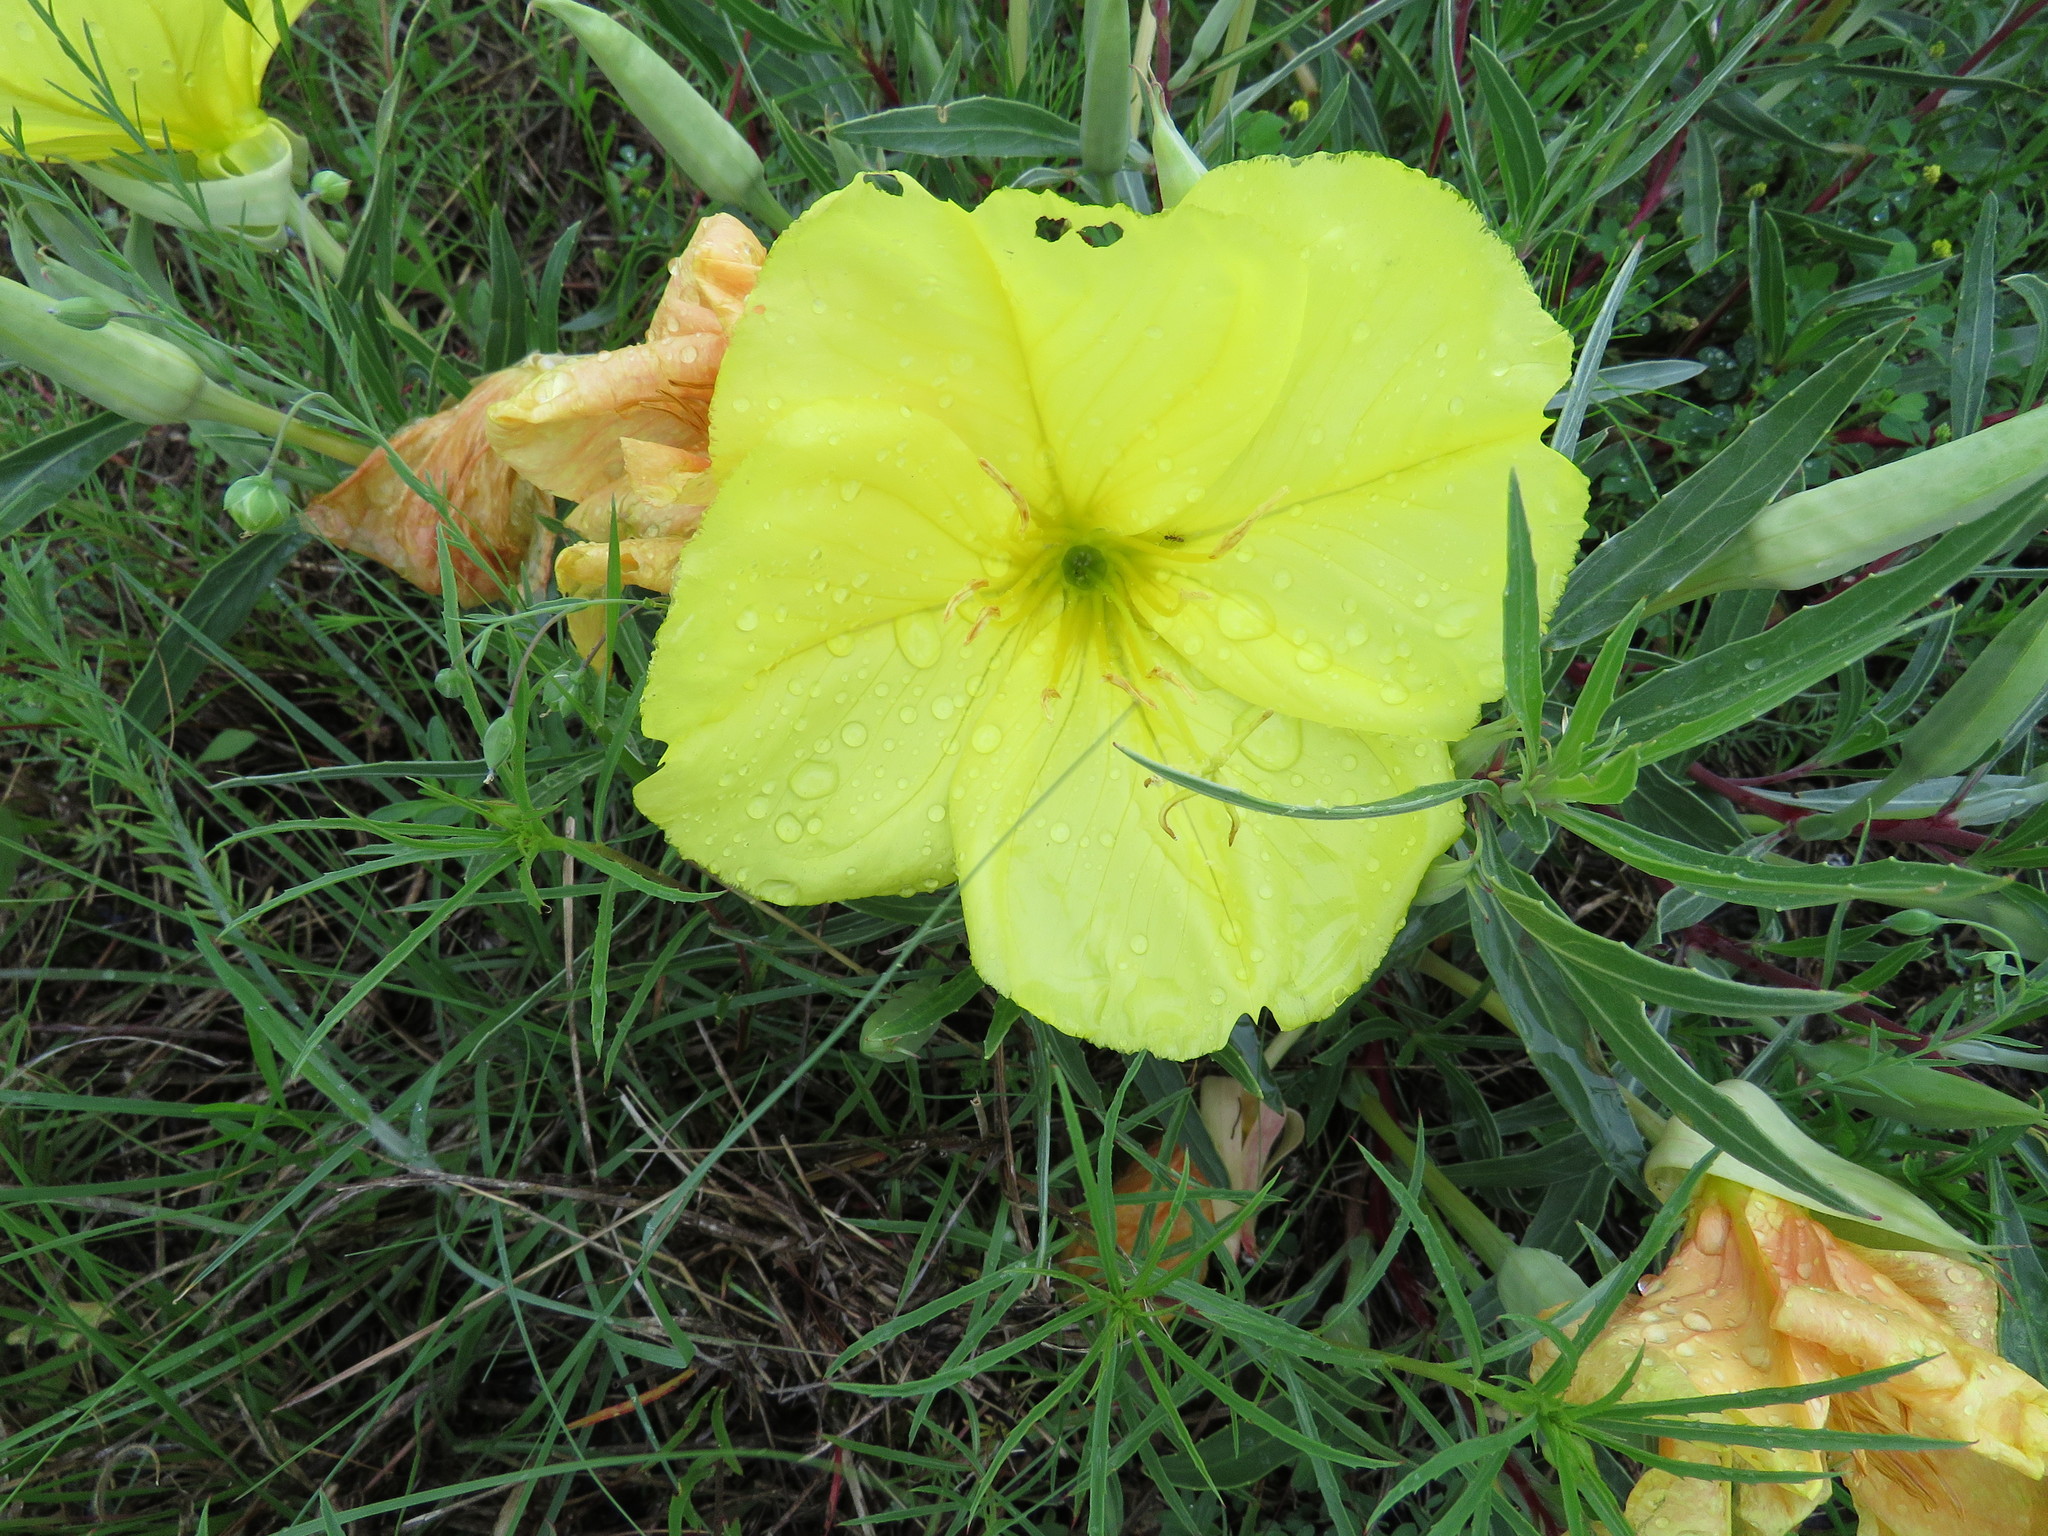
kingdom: Plantae
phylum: Tracheophyta
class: Magnoliopsida
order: Myrtales
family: Onagraceae
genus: Oenothera
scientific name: Oenothera macrocarpa
